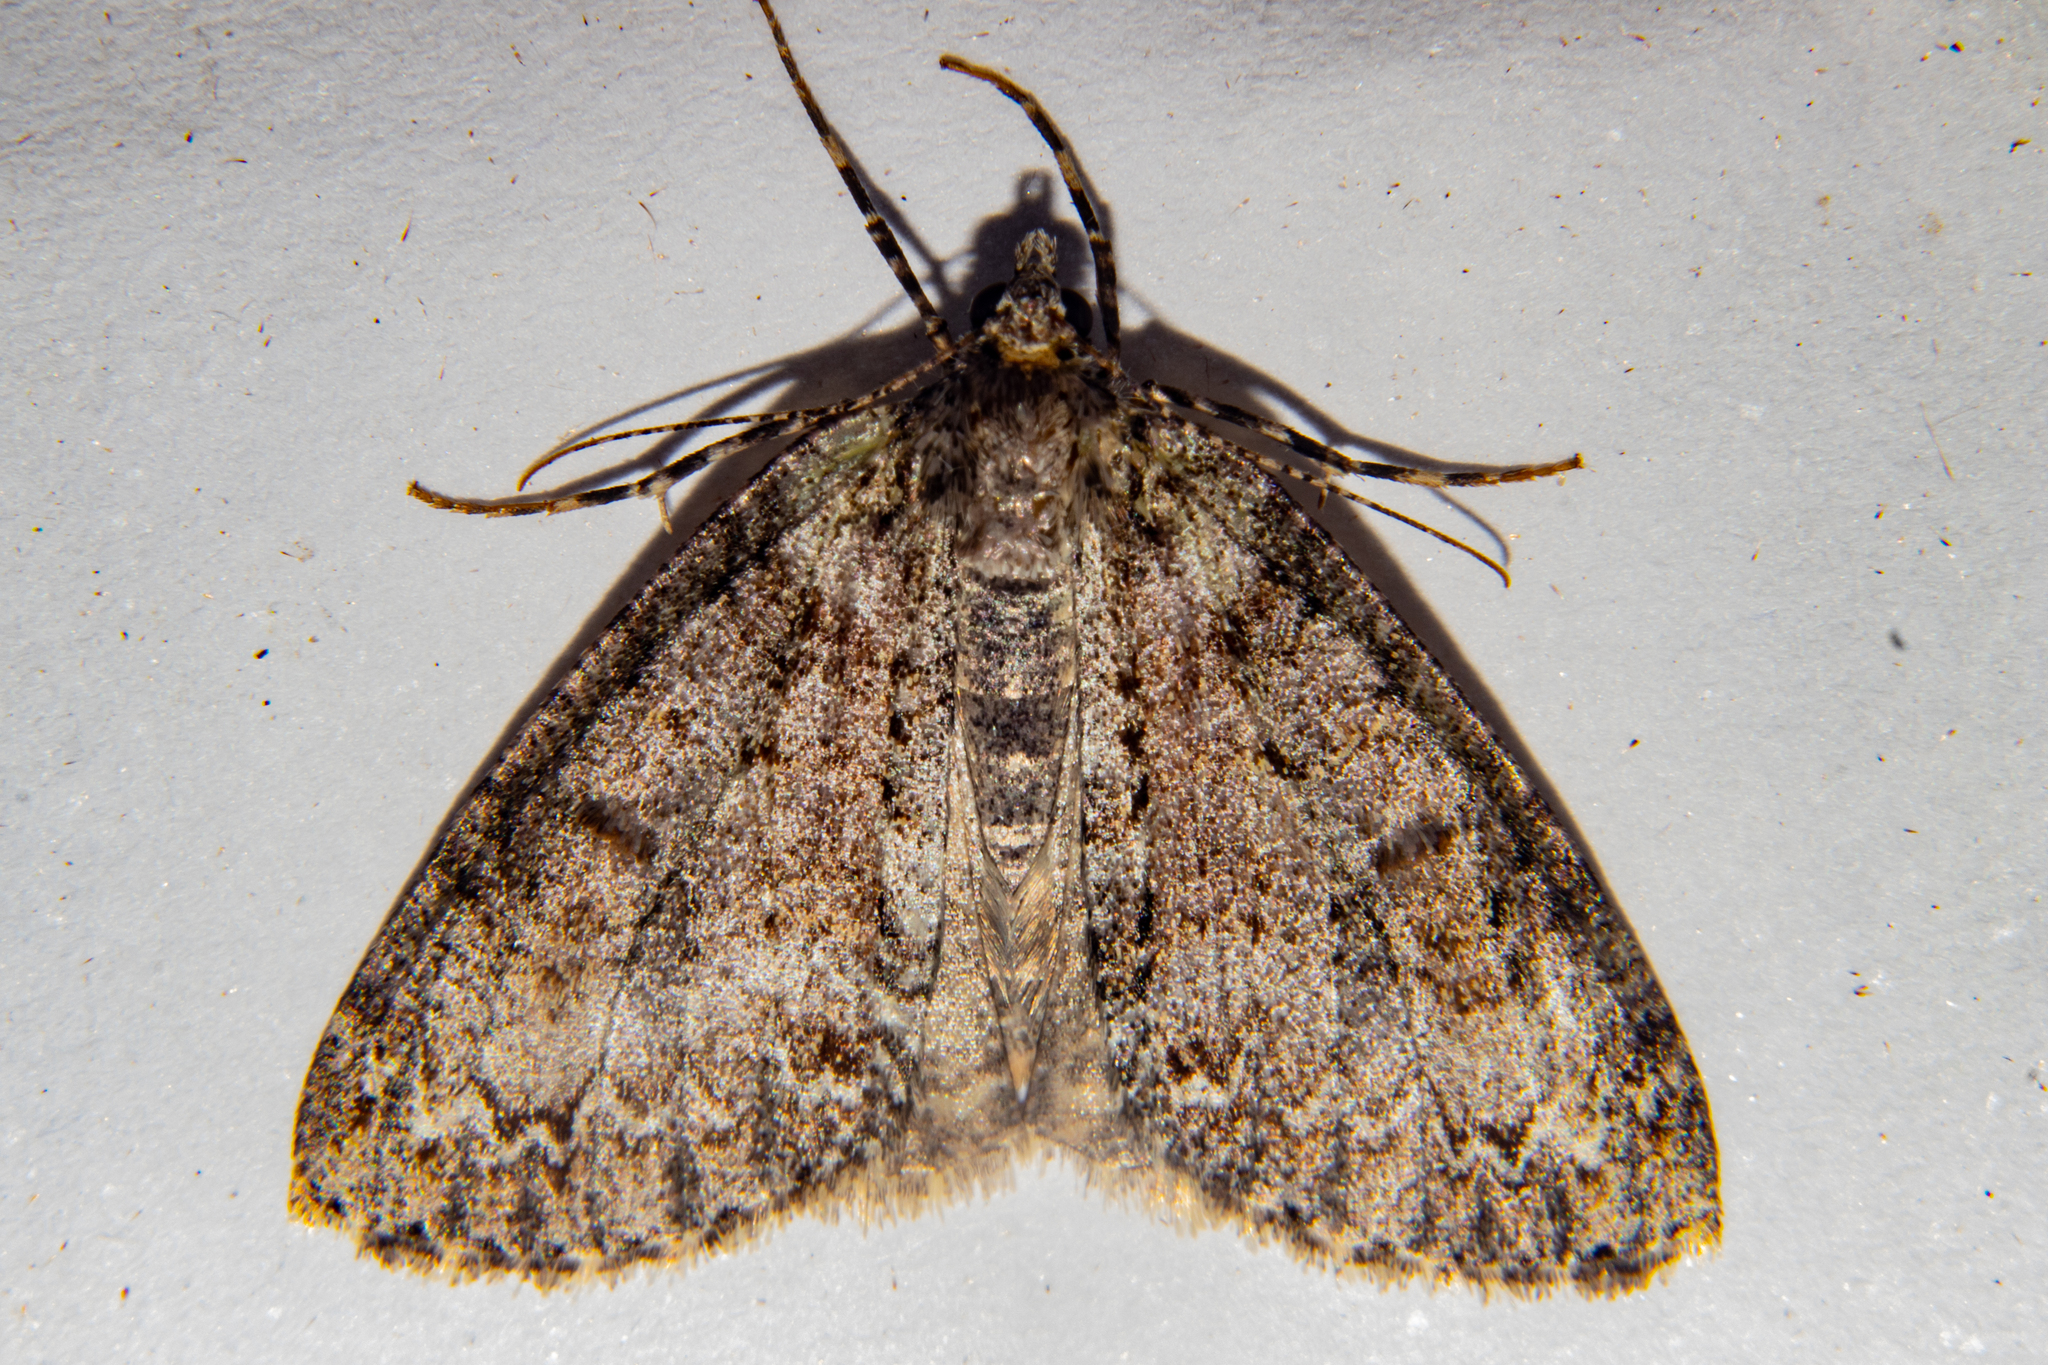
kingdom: Animalia
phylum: Arthropoda
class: Insecta
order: Lepidoptera
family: Geometridae
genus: Pseudocoremia
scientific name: Pseudocoremia suavis
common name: Common forest looper
